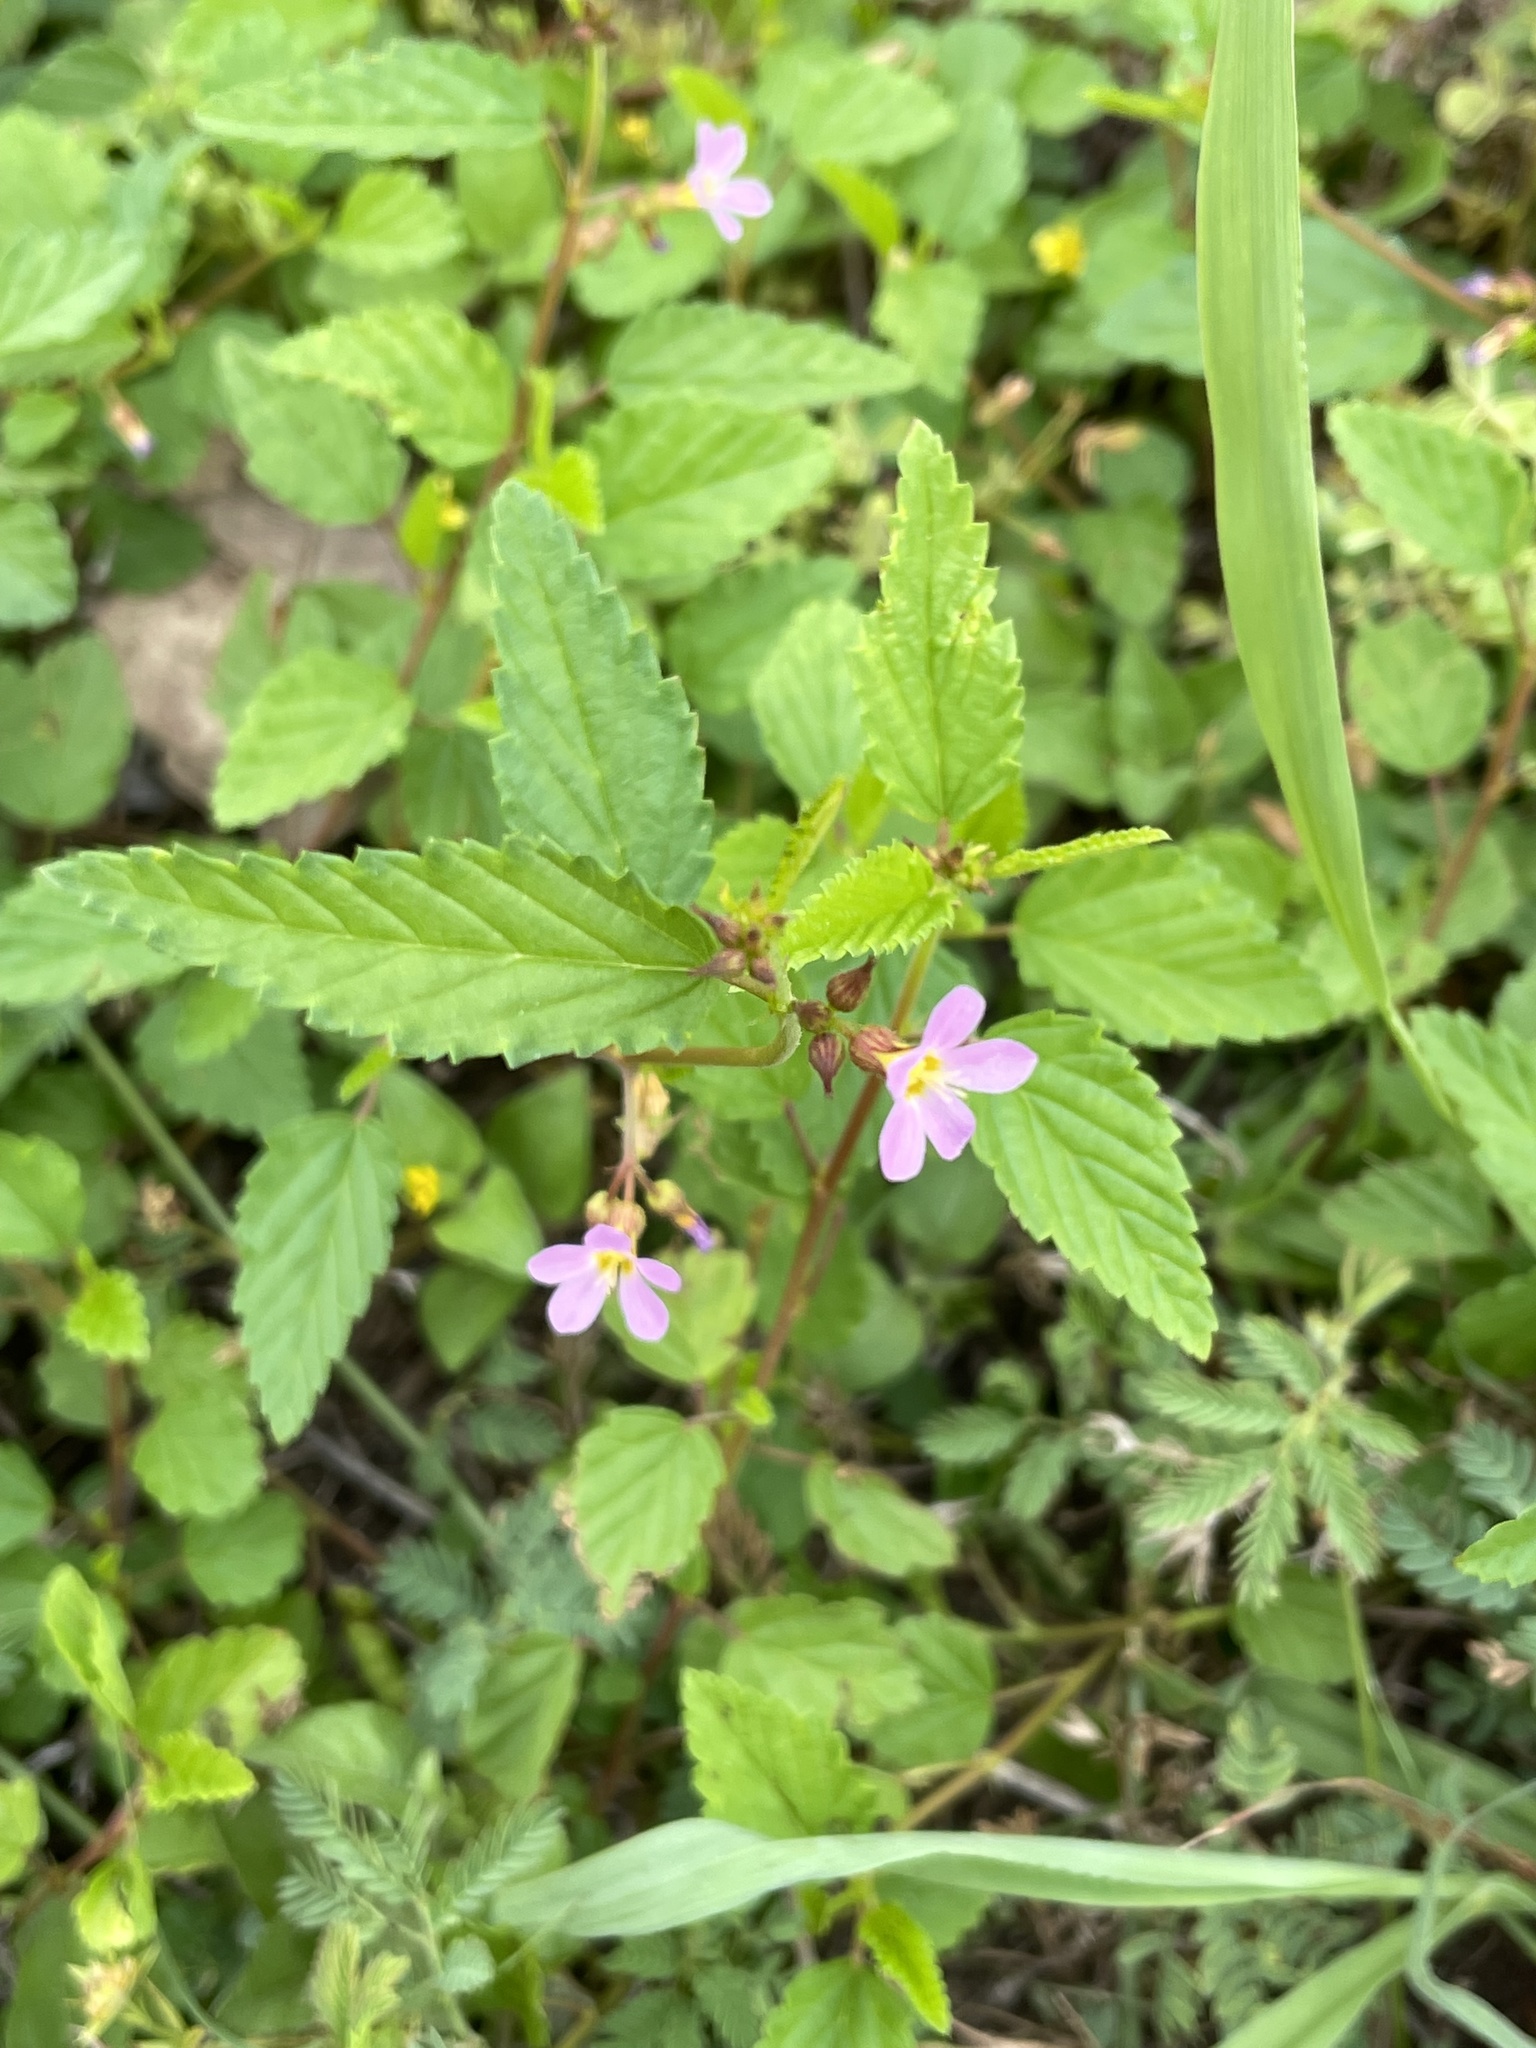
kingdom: Plantae
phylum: Tracheophyta
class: Magnoliopsida
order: Malvales
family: Malvaceae
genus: Melochia
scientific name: Melochia pyramidata
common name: Pyramidflower
